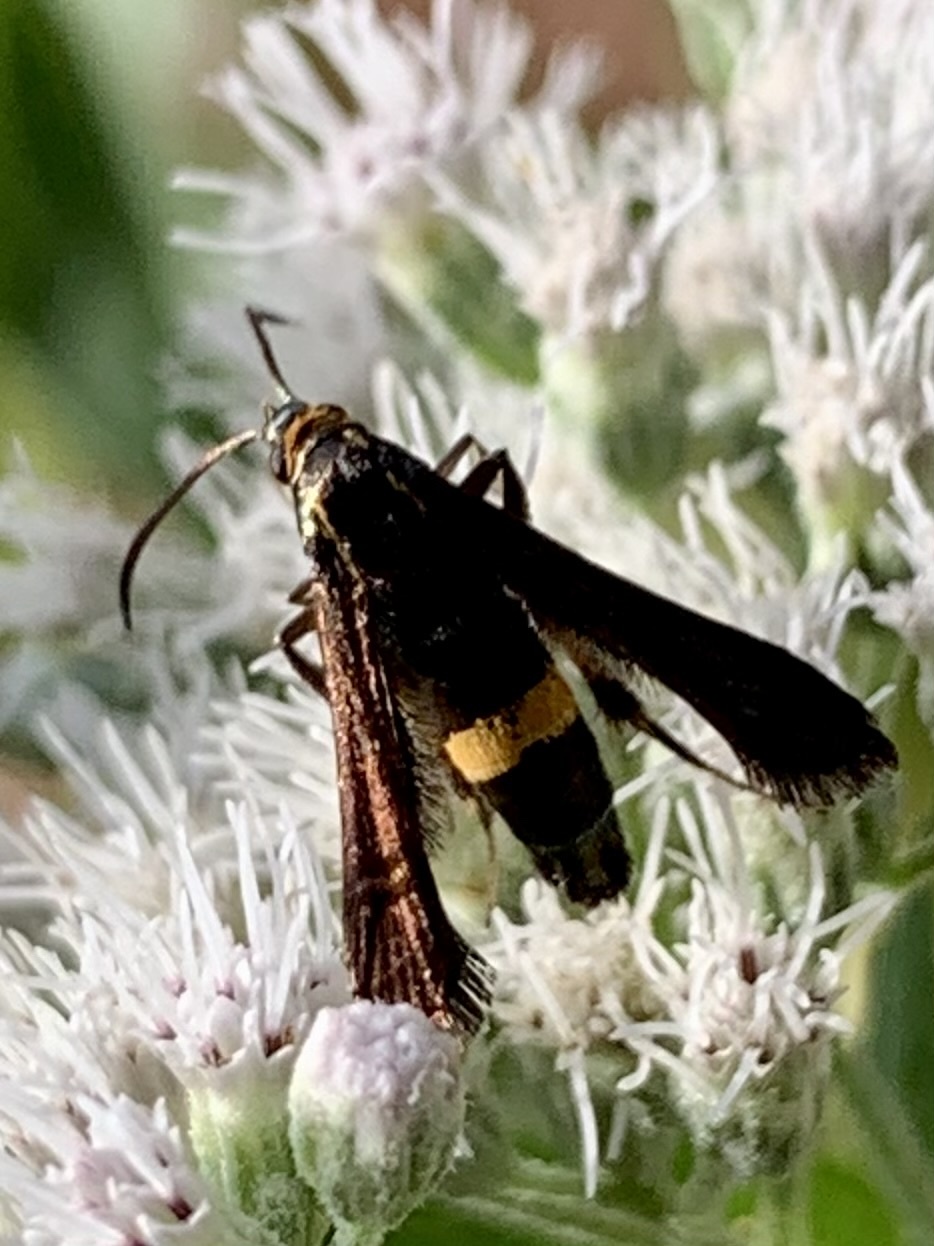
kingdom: Animalia
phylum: Arthropoda
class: Insecta
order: Lepidoptera
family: Sesiidae
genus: Carmenta
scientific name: Carmenta pyralidiformis
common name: Boneset borer moth
